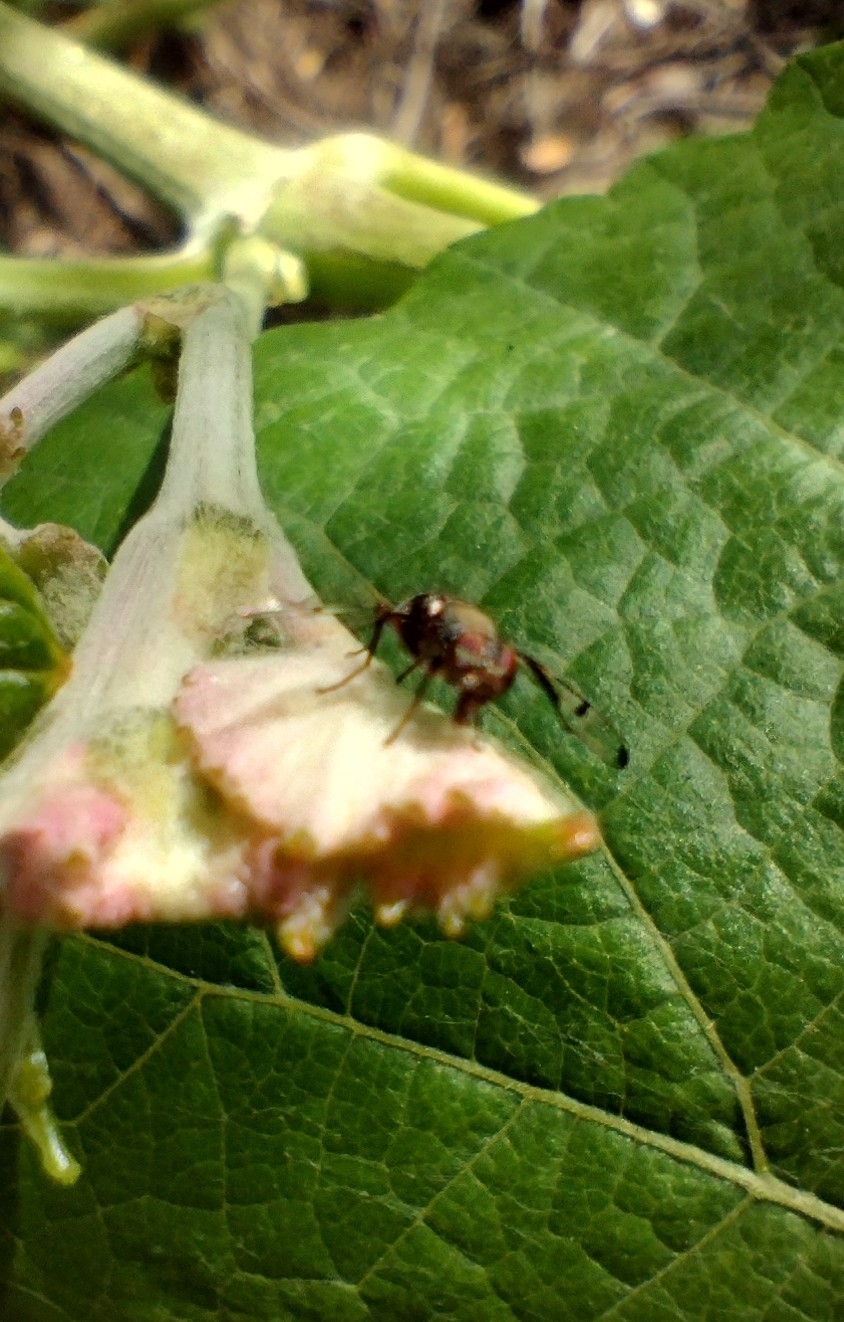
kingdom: Animalia
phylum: Arthropoda
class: Insecta
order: Diptera
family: Platystomatidae
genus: Pogonortalis
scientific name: Pogonortalis doclea
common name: Boatman fly
